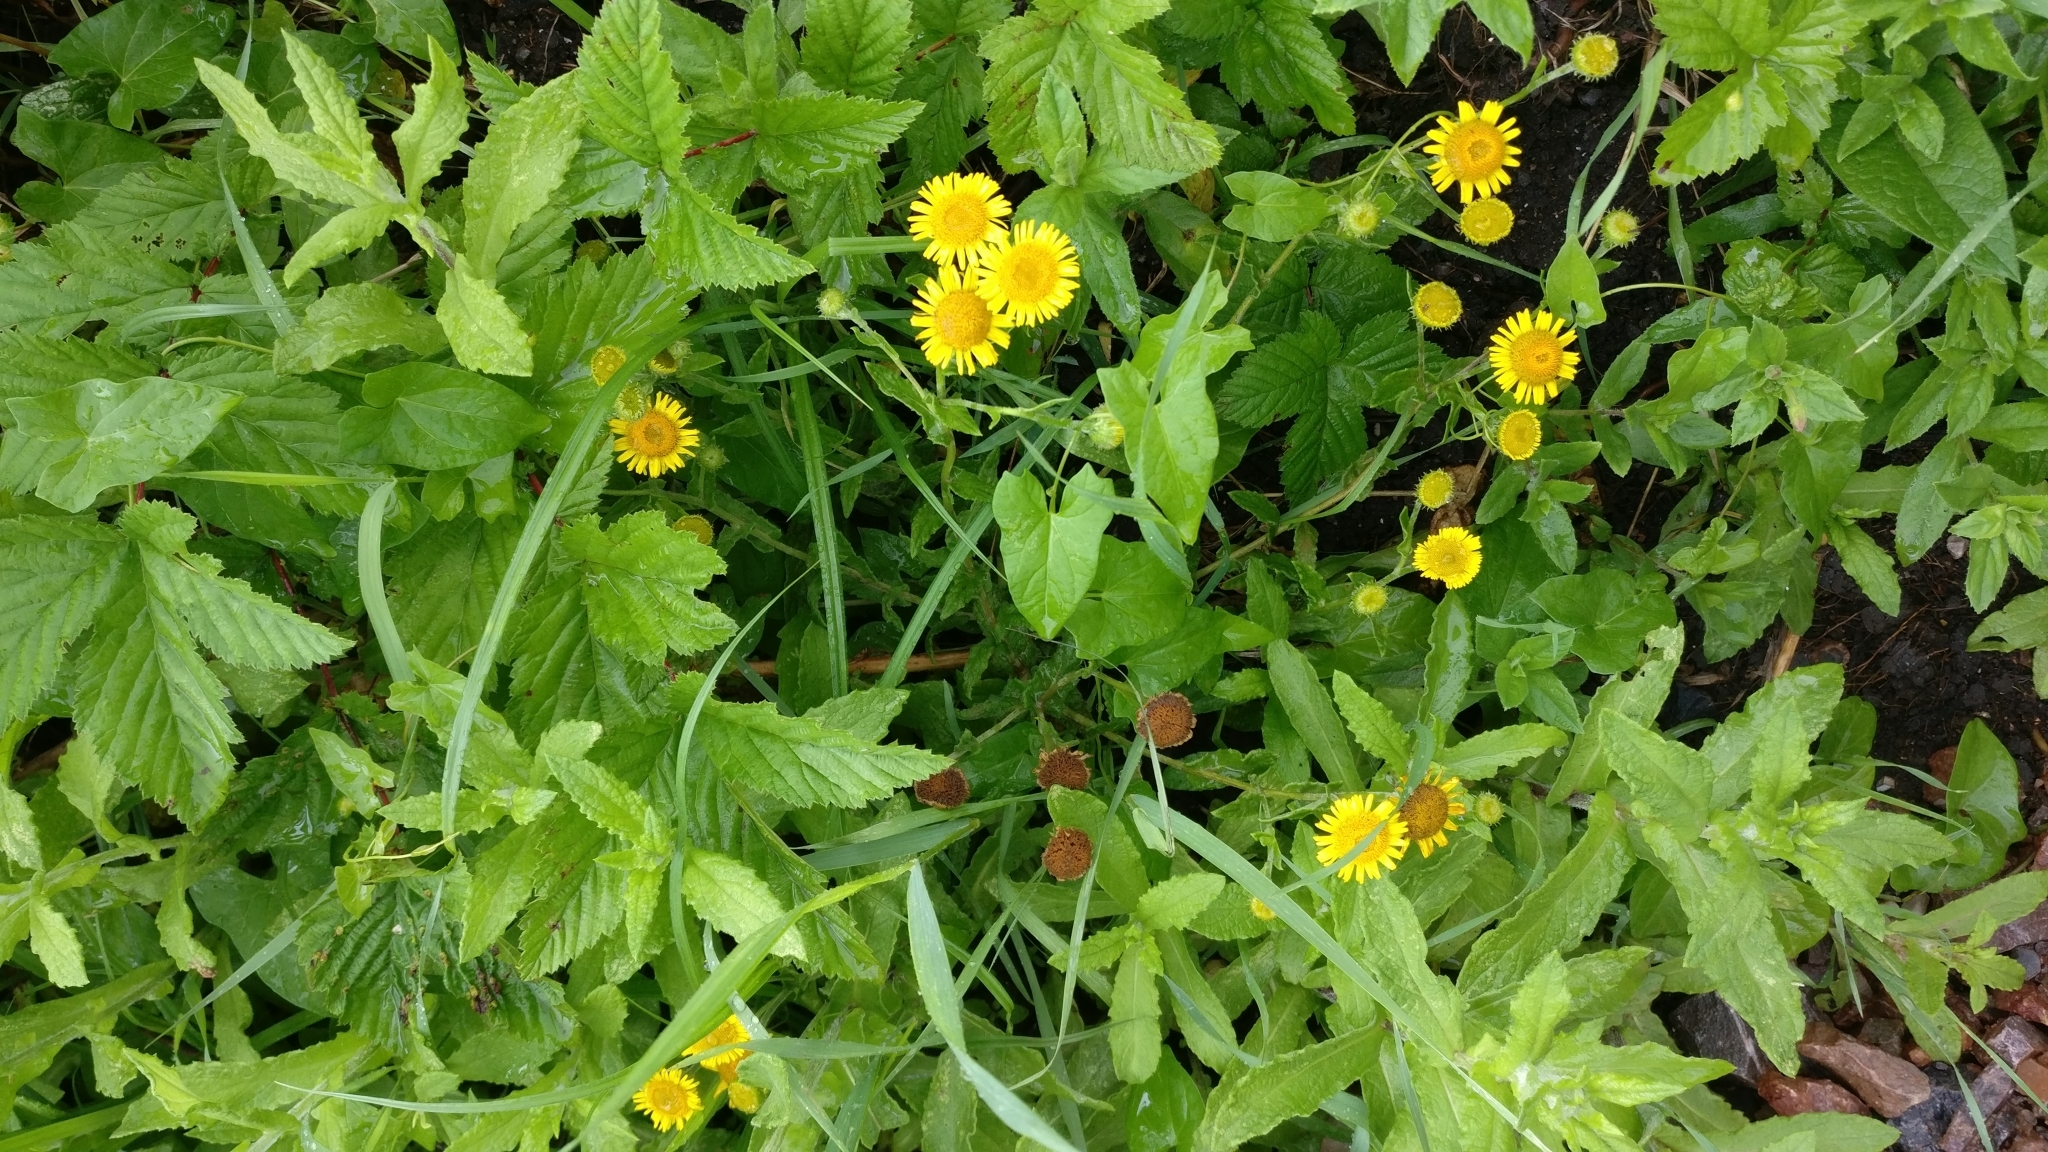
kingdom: Plantae
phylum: Tracheophyta
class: Magnoliopsida
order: Asterales
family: Asteraceae
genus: Pulicaria
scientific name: Pulicaria dysenterica
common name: Common fleabane
